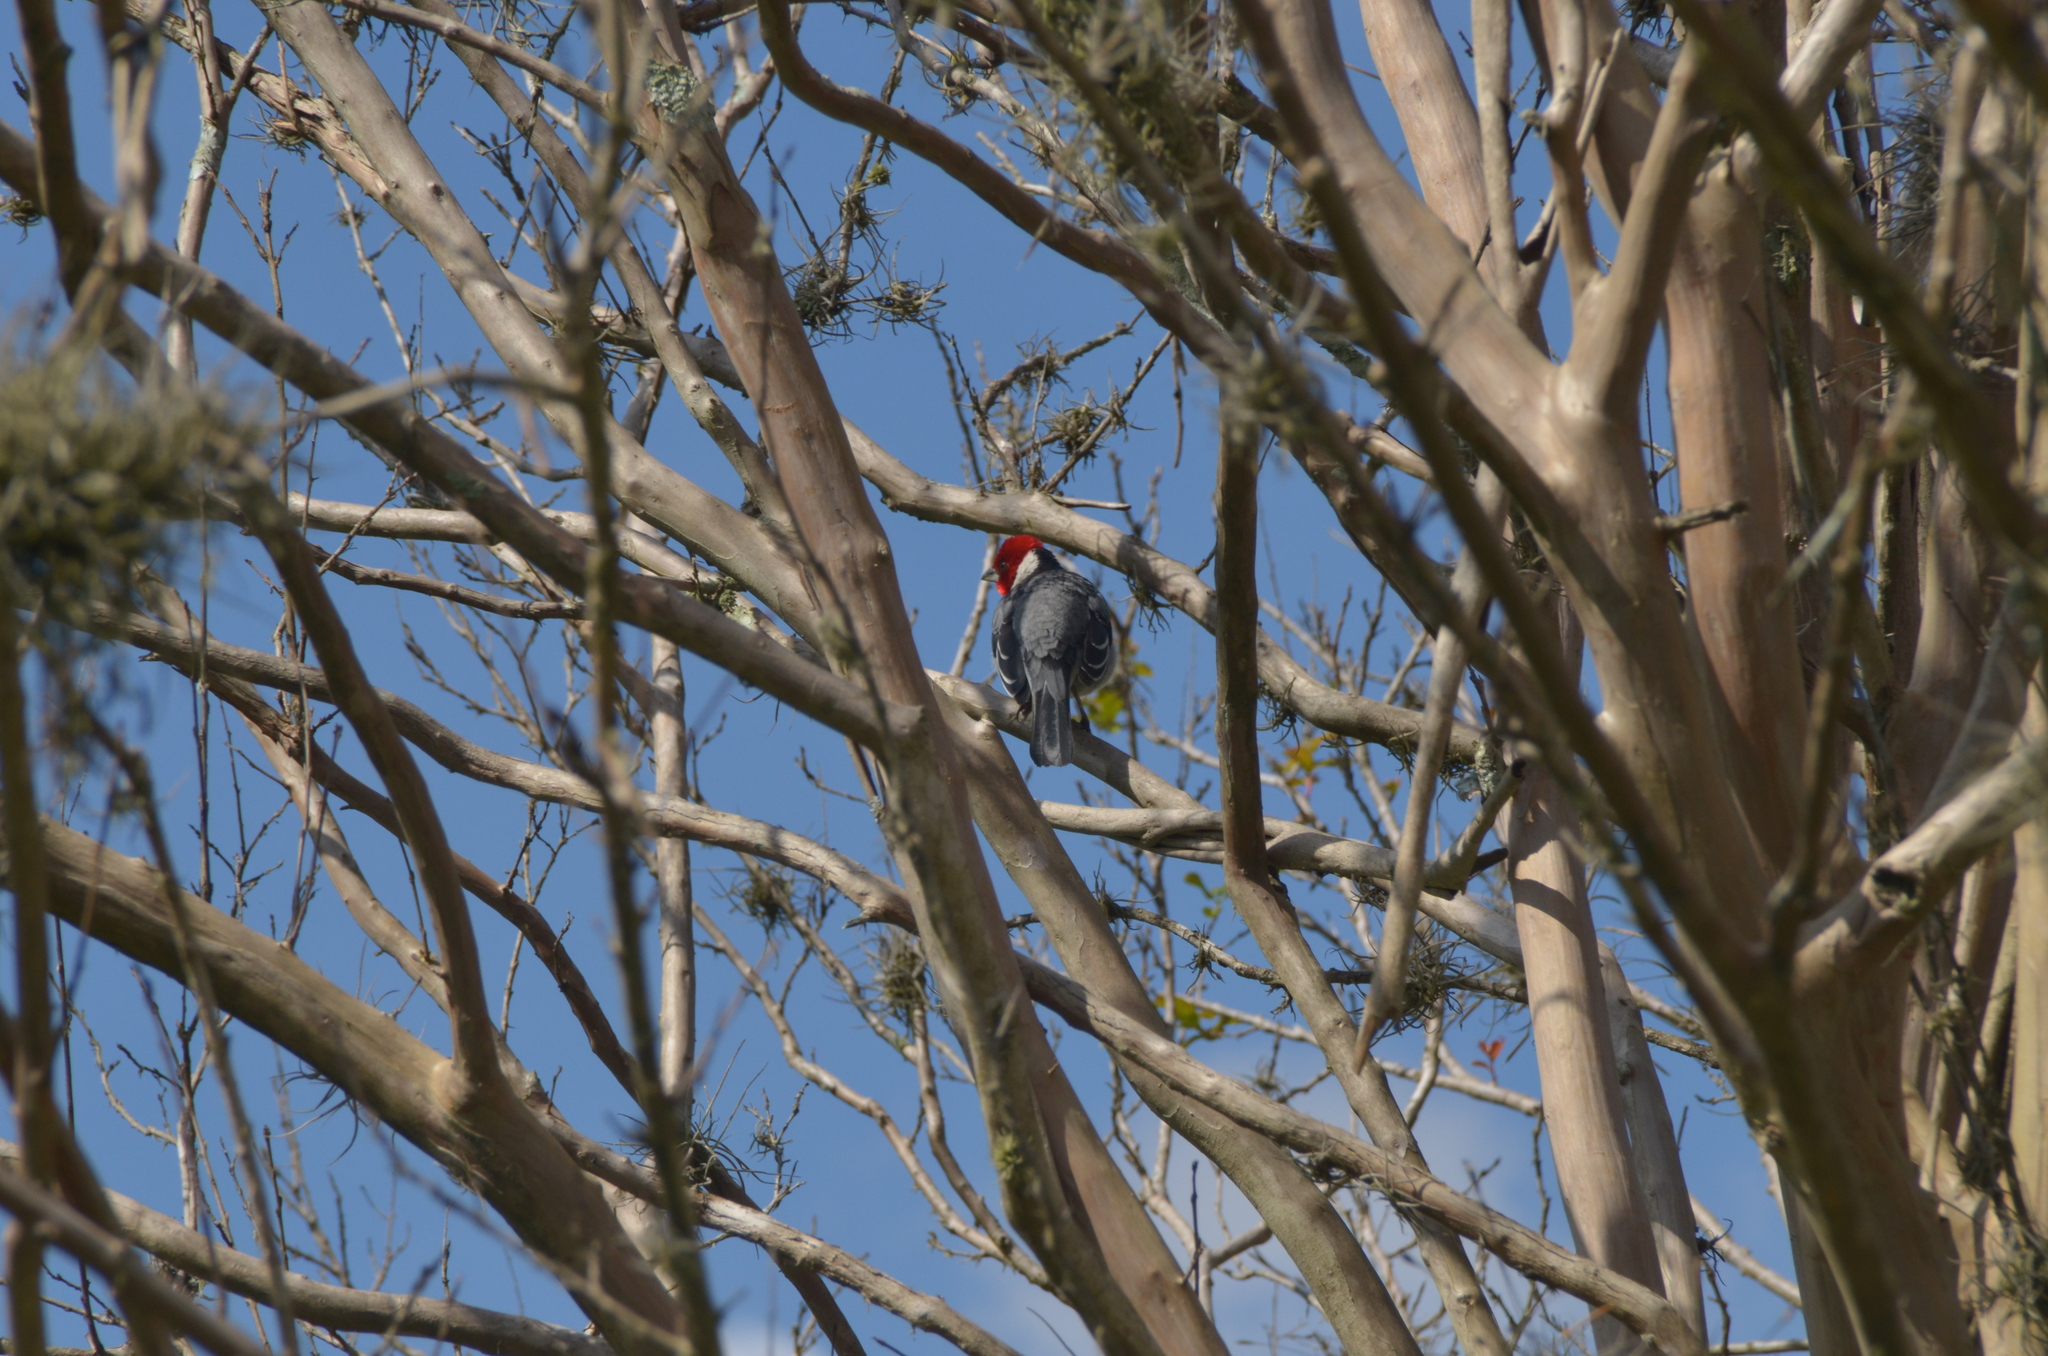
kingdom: Animalia
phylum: Chordata
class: Aves
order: Passeriformes
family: Thraupidae
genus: Paroaria
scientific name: Paroaria dominicana
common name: Red-cowled cardinal
